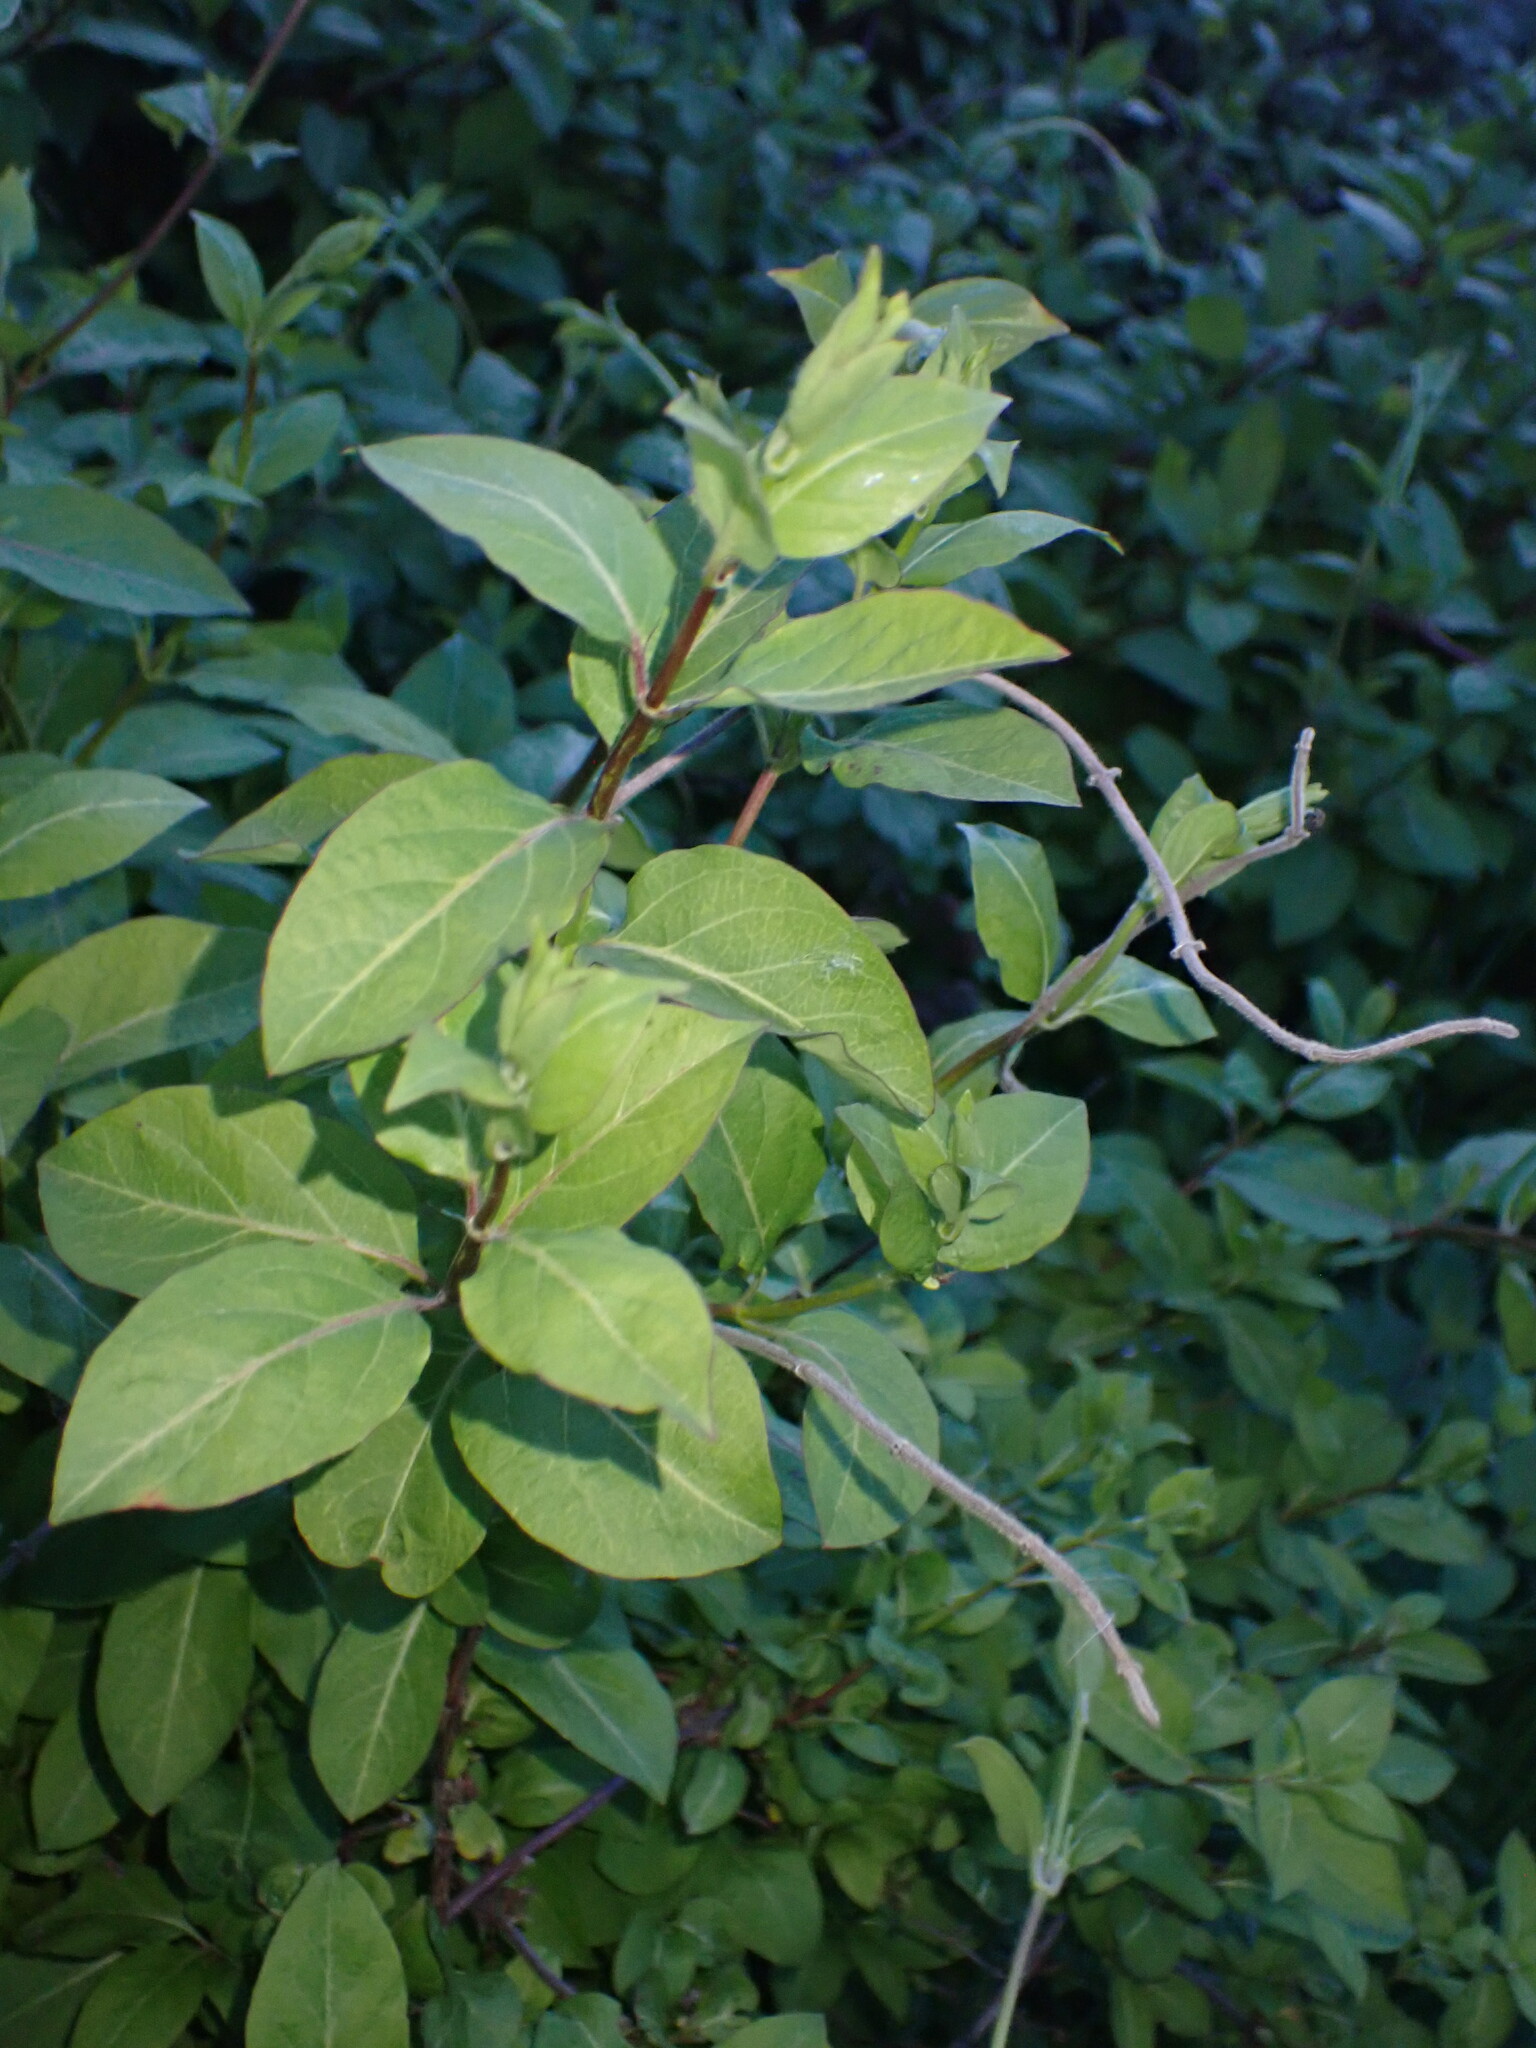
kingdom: Plantae
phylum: Tracheophyta
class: Magnoliopsida
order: Dipsacales
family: Caprifoliaceae
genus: Lonicera
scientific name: Lonicera japonica
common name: Japanese honeysuckle
